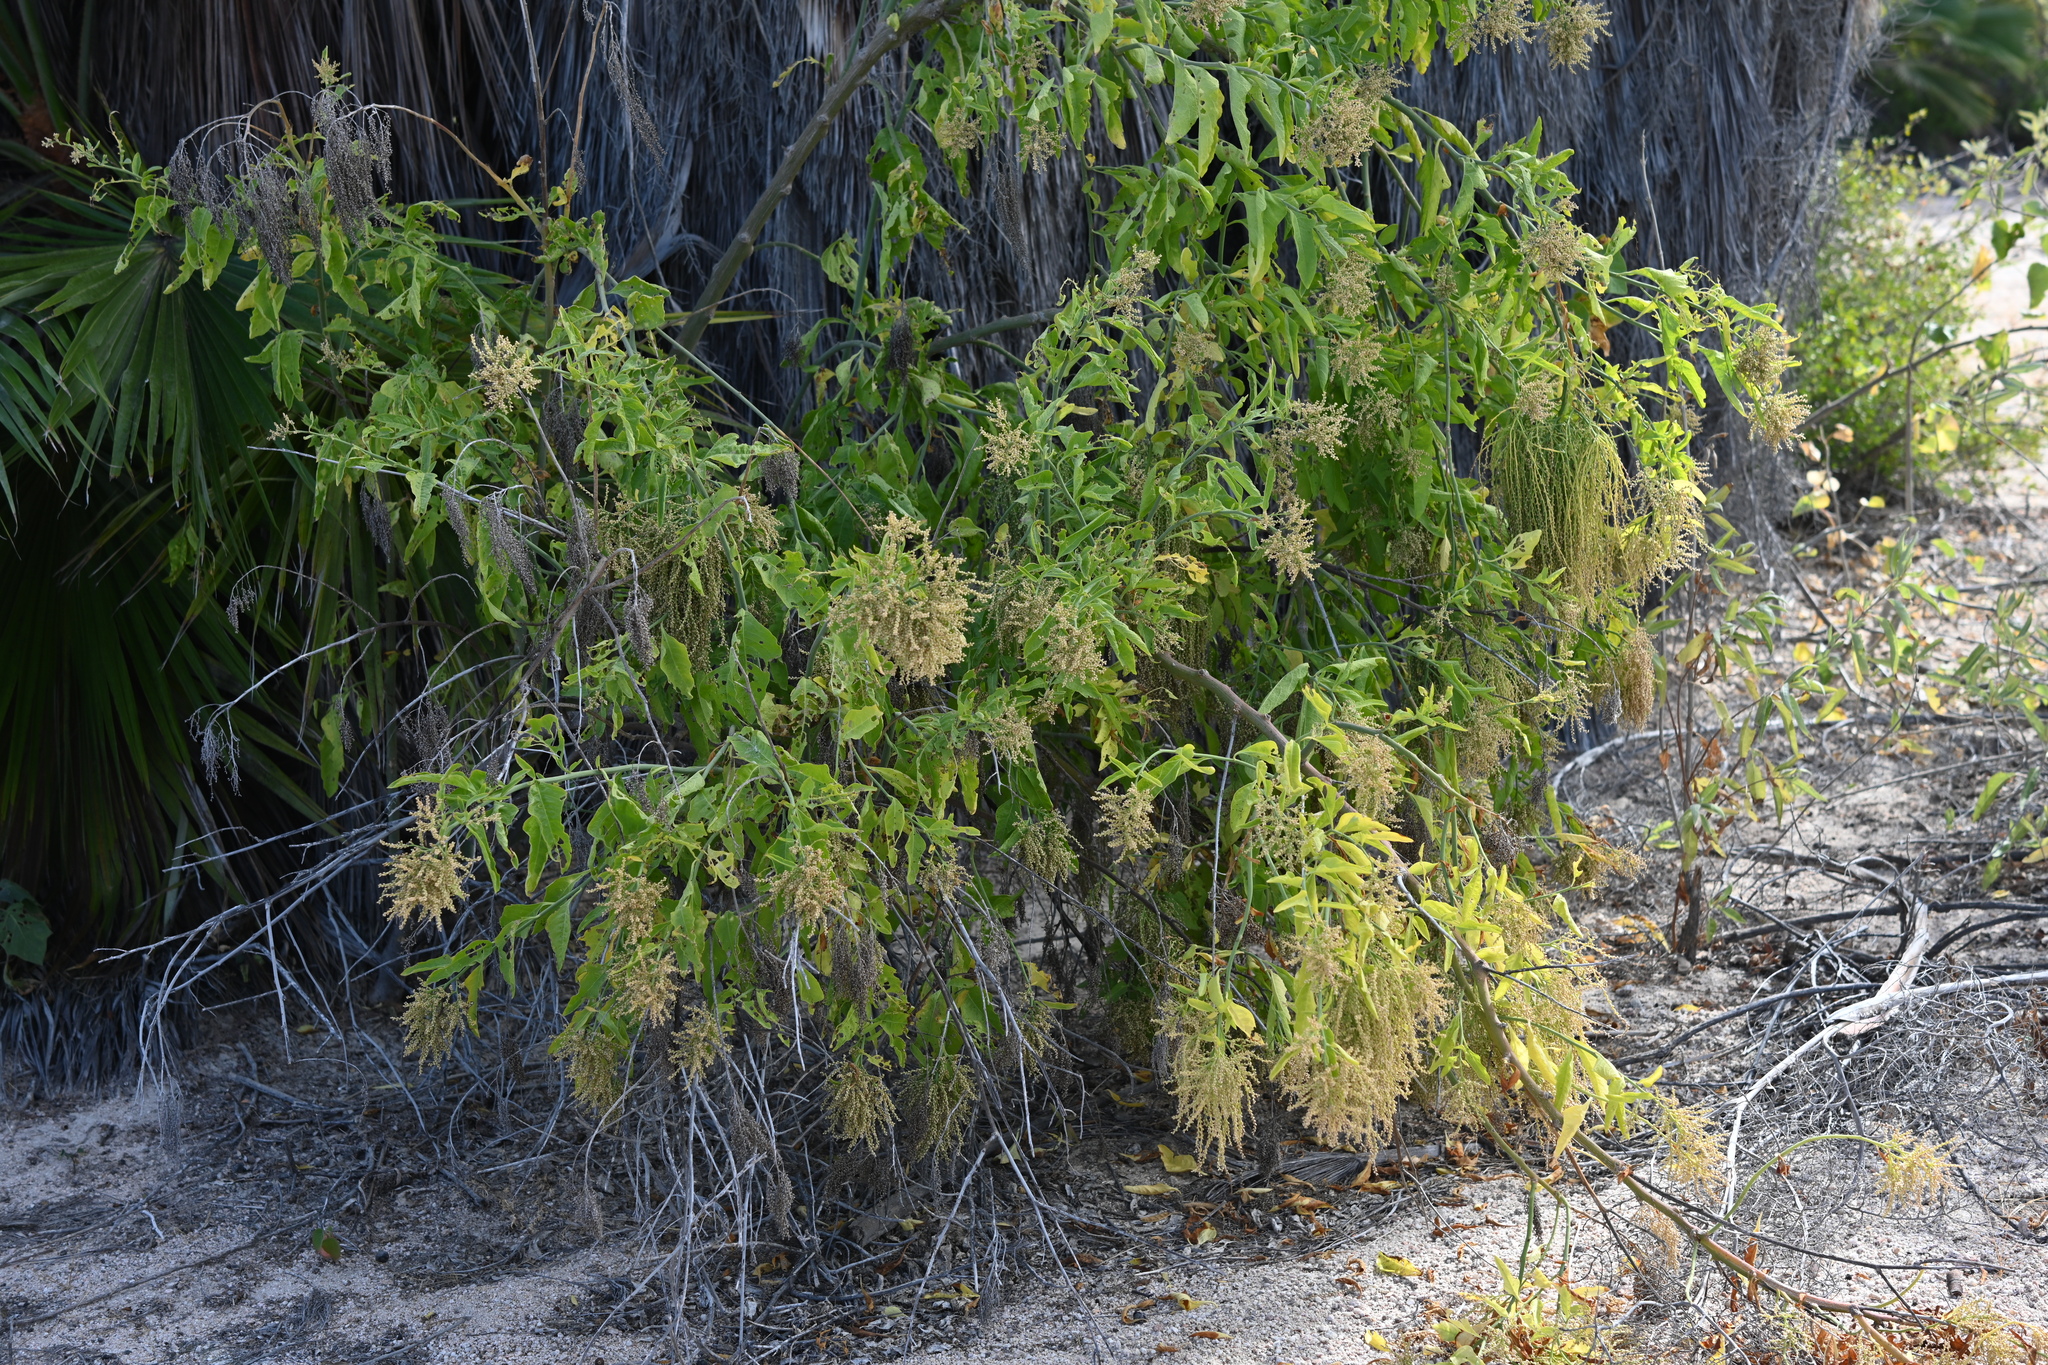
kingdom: Plantae
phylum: Tracheophyta
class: Magnoliopsida
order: Caryophyllales
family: Amaranthaceae
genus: Celosia
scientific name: Celosia floribunda
